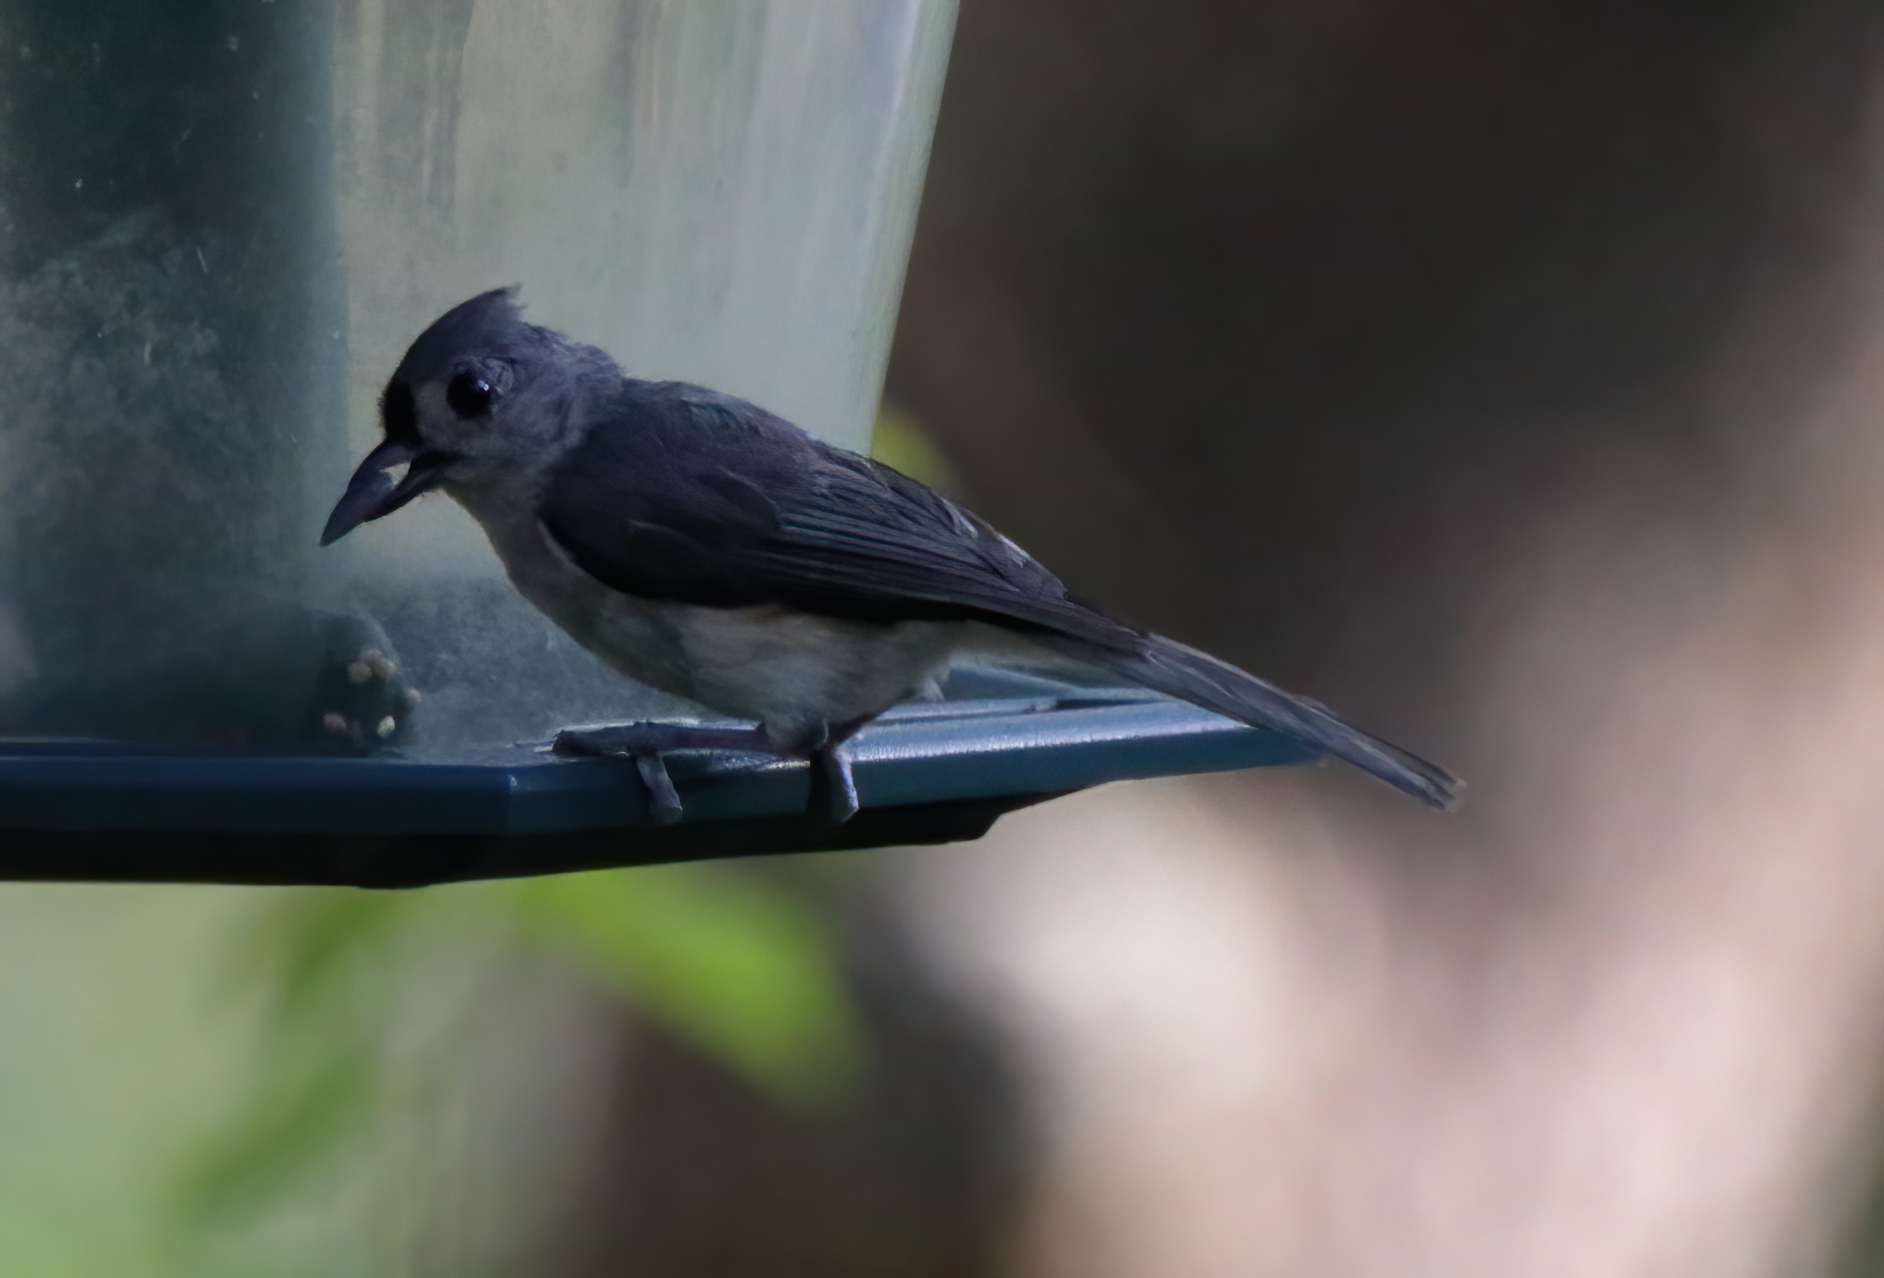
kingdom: Animalia
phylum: Chordata
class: Aves
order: Passeriformes
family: Paridae
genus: Baeolophus
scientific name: Baeolophus bicolor
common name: Tufted titmouse
